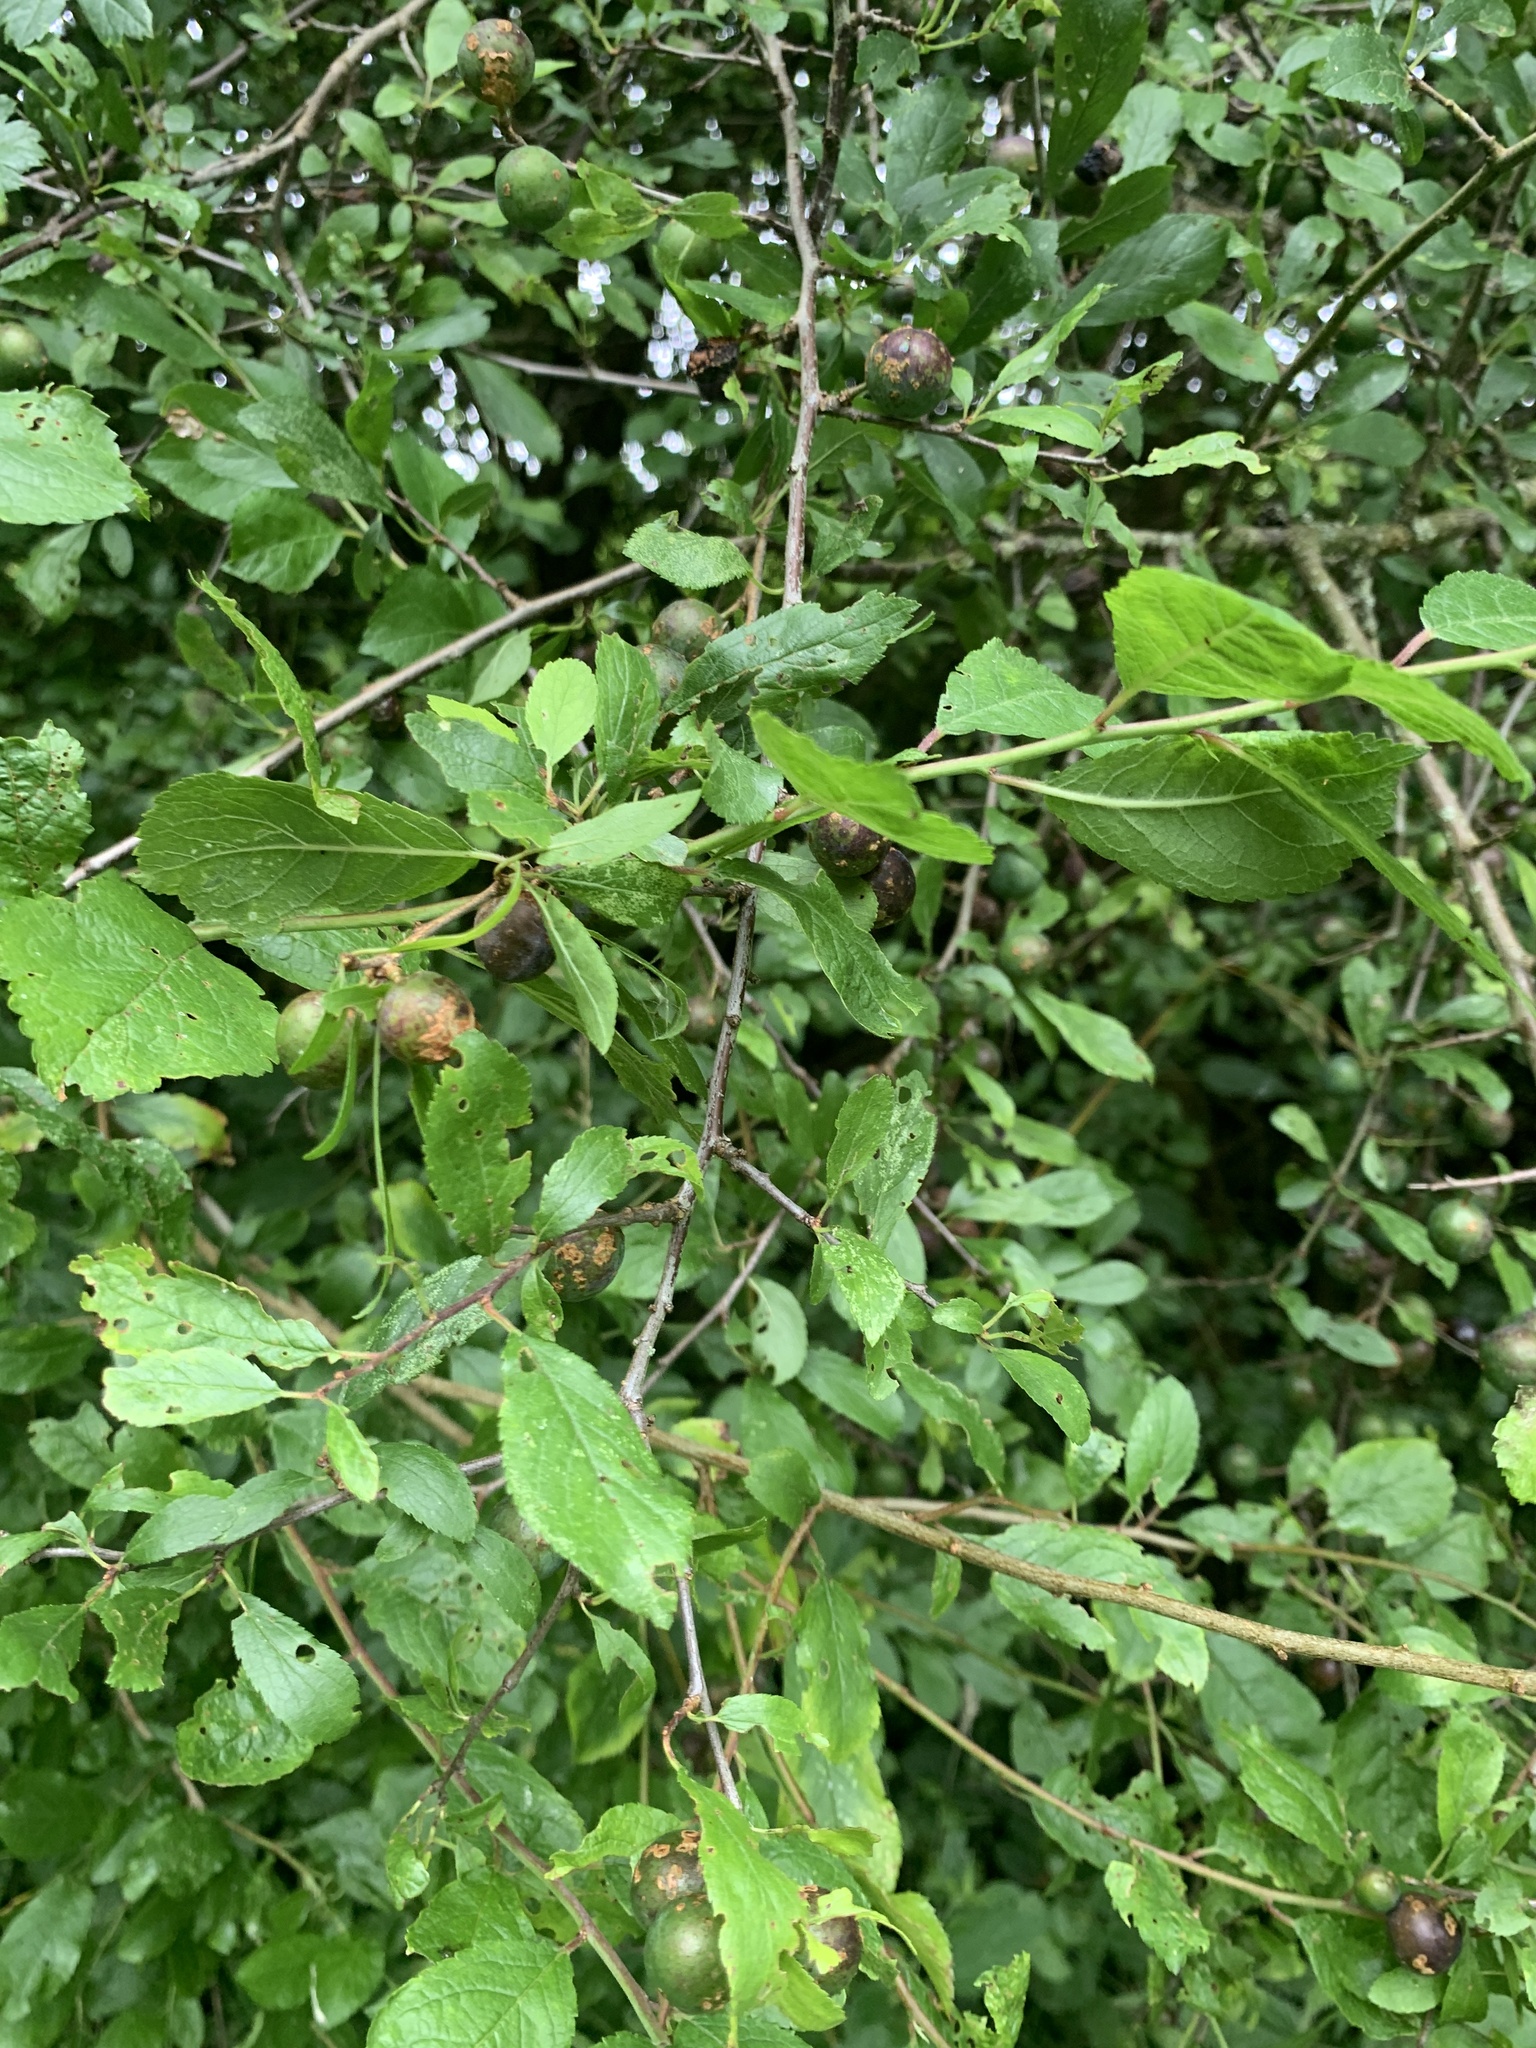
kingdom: Plantae
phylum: Tracheophyta
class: Magnoliopsida
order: Rosales
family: Rosaceae
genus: Prunus
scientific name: Prunus spinosa
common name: Blackthorn
